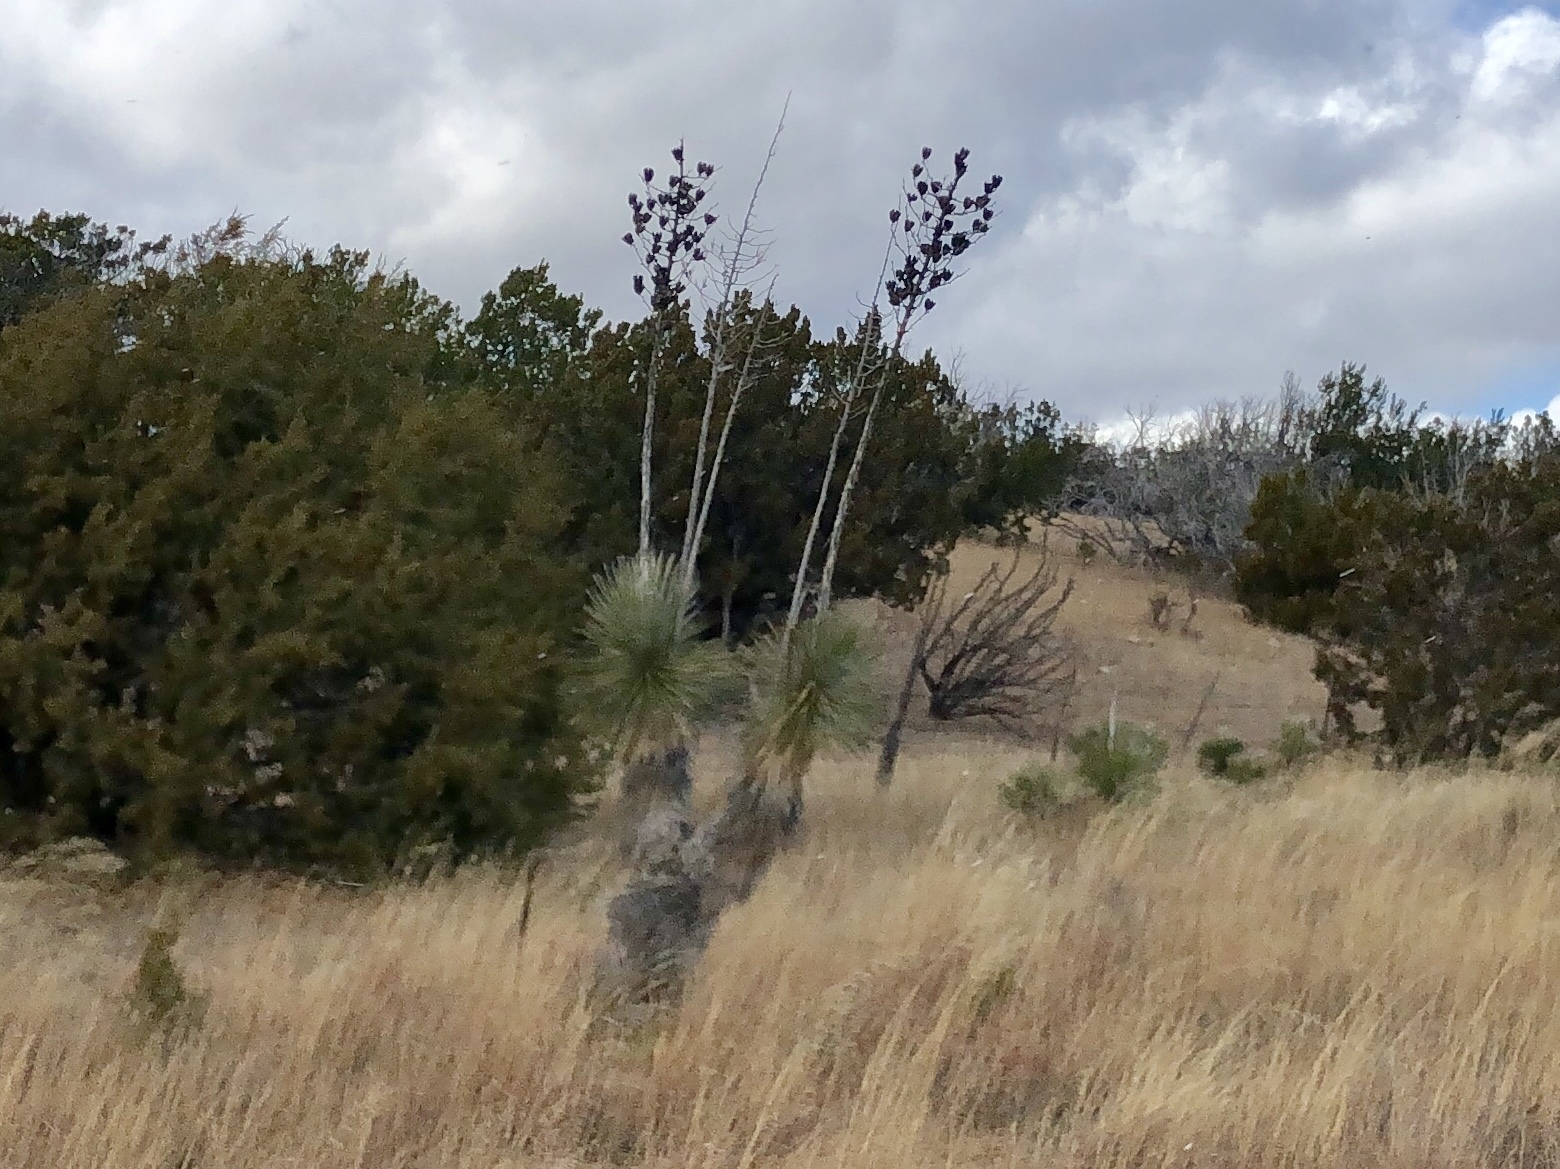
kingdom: Plantae
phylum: Tracheophyta
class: Liliopsida
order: Asparagales
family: Asparagaceae
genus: Yucca
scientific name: Yucca elata
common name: Palmella
